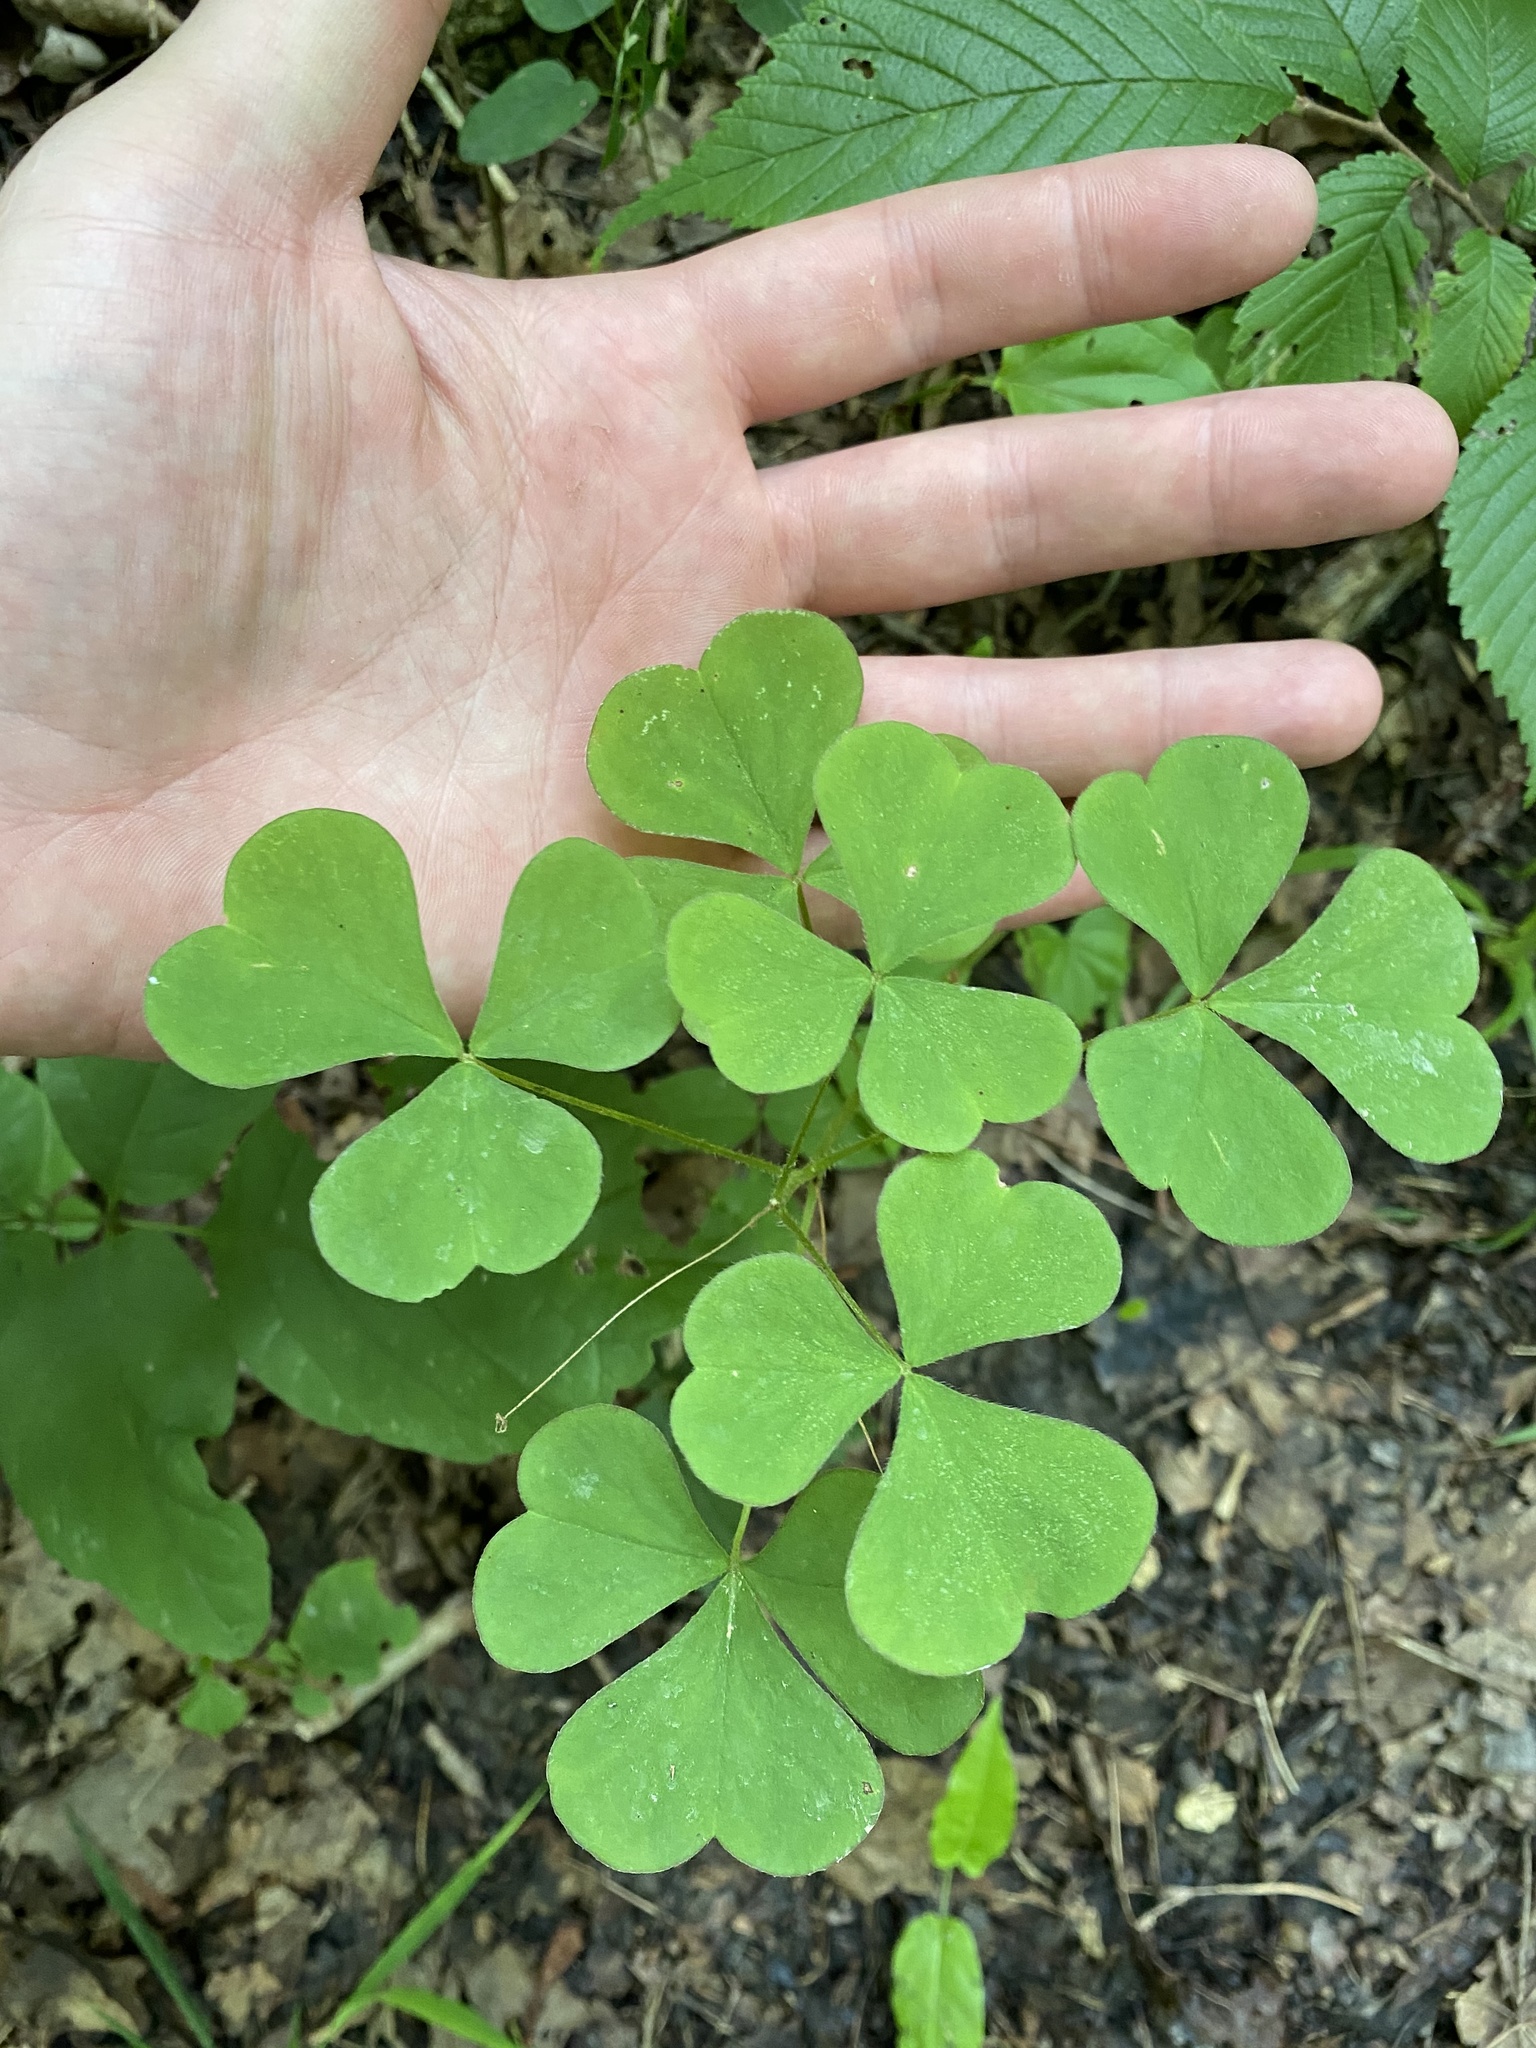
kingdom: Plantae
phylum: Tracheophyta
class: Magnoliopsida
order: Oxalidales
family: Oxalidaceae
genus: Oxalis
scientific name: Oxalis illinoensis
